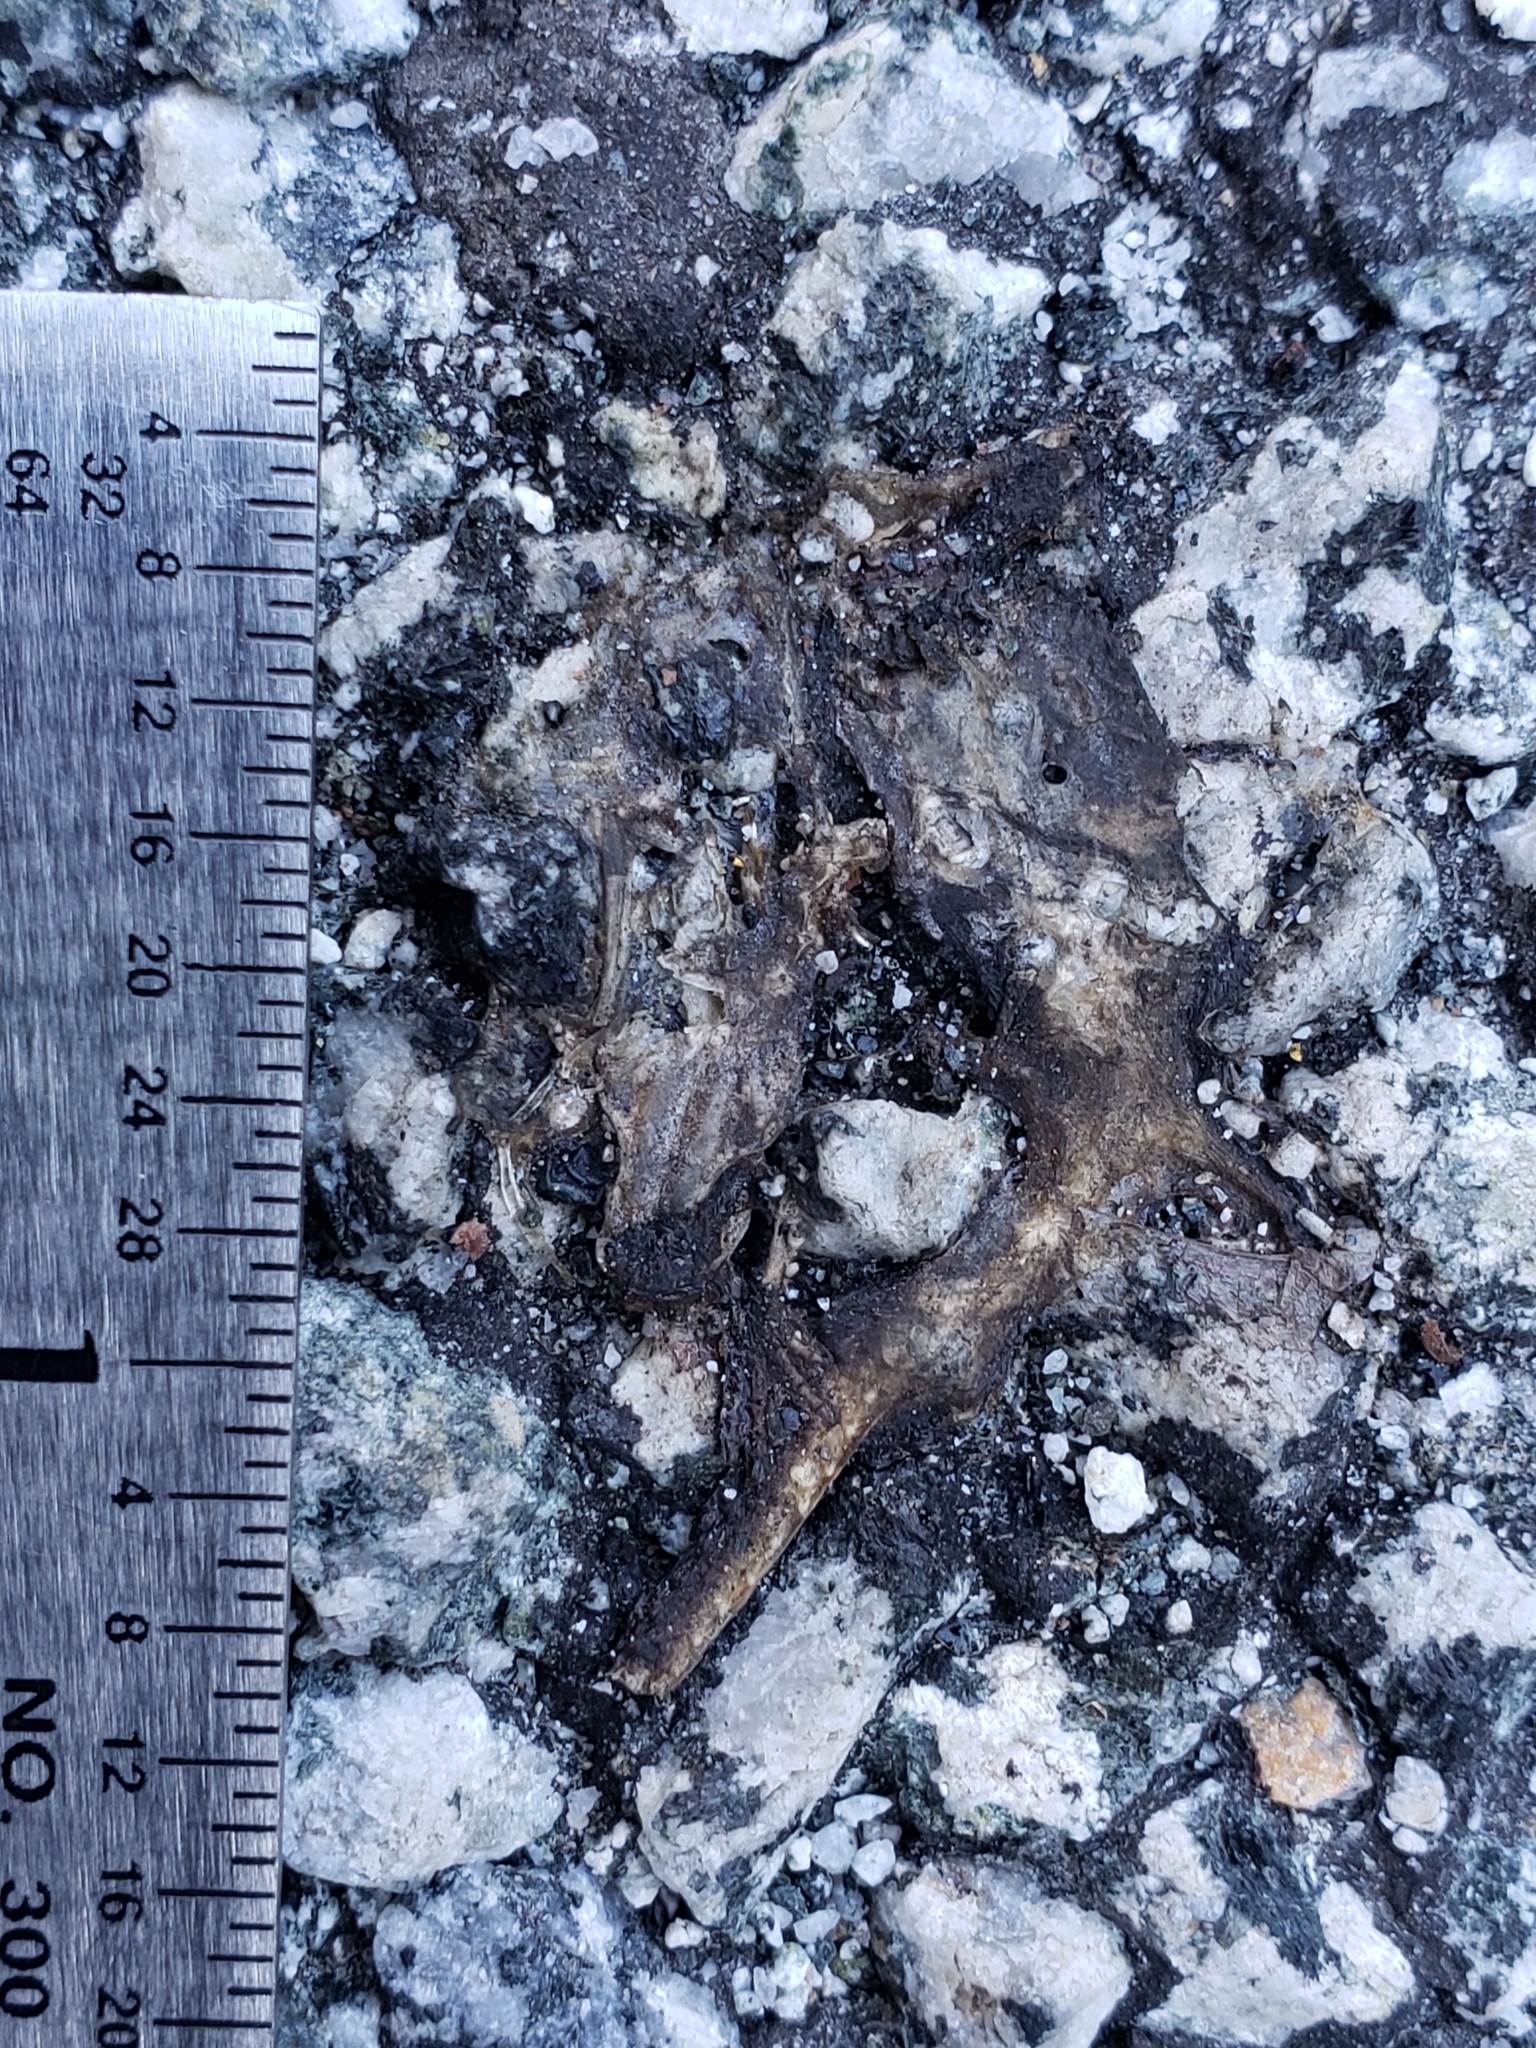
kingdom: Animalia
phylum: Chordata
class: Amphibia
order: Caudata
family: Salamandridae
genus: Taricha
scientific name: Taricha
